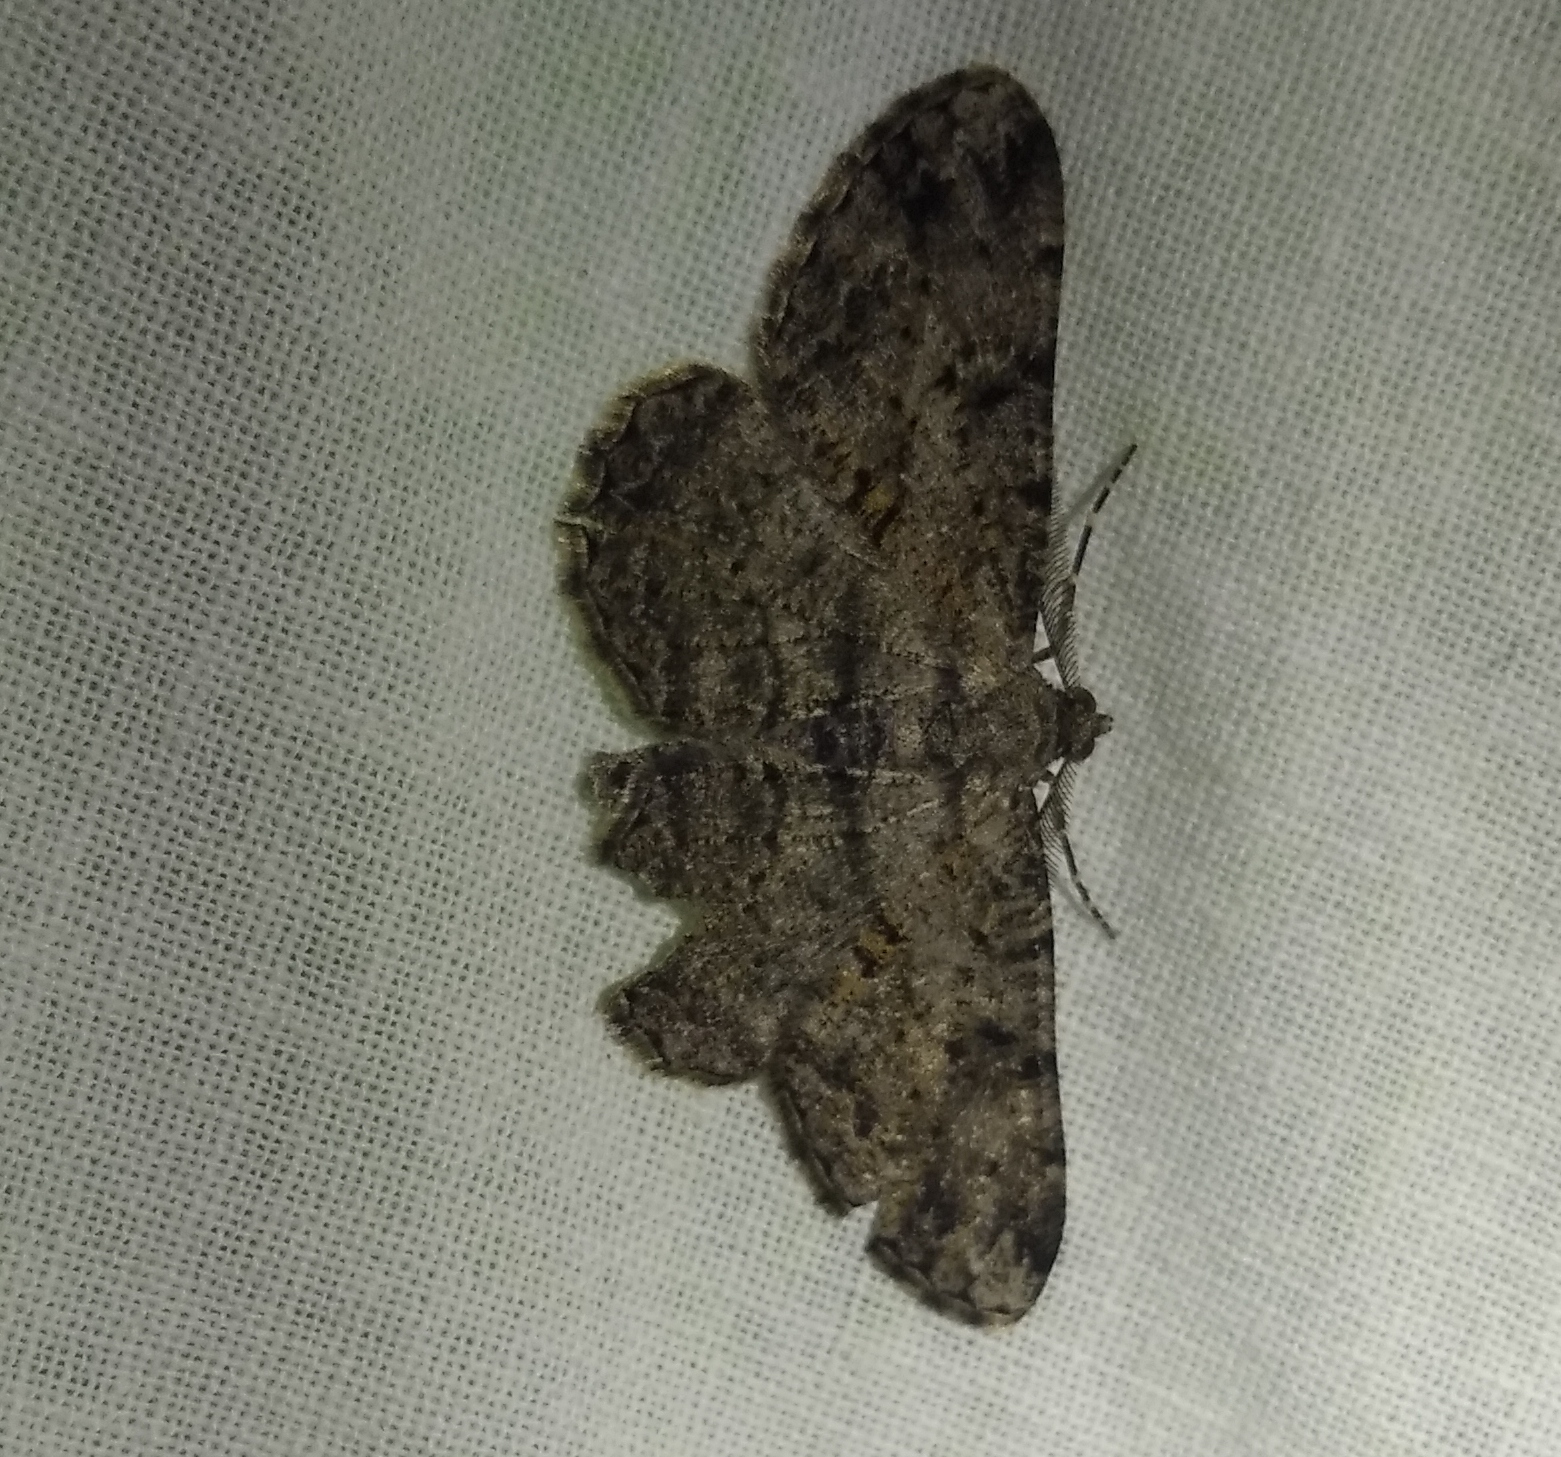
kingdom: Animalia
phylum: Arthropoda
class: Insecta
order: Lepidoptera
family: Geometridae
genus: Peribatodes
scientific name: Peribatodes rhomboidaria
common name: Willow beauty
